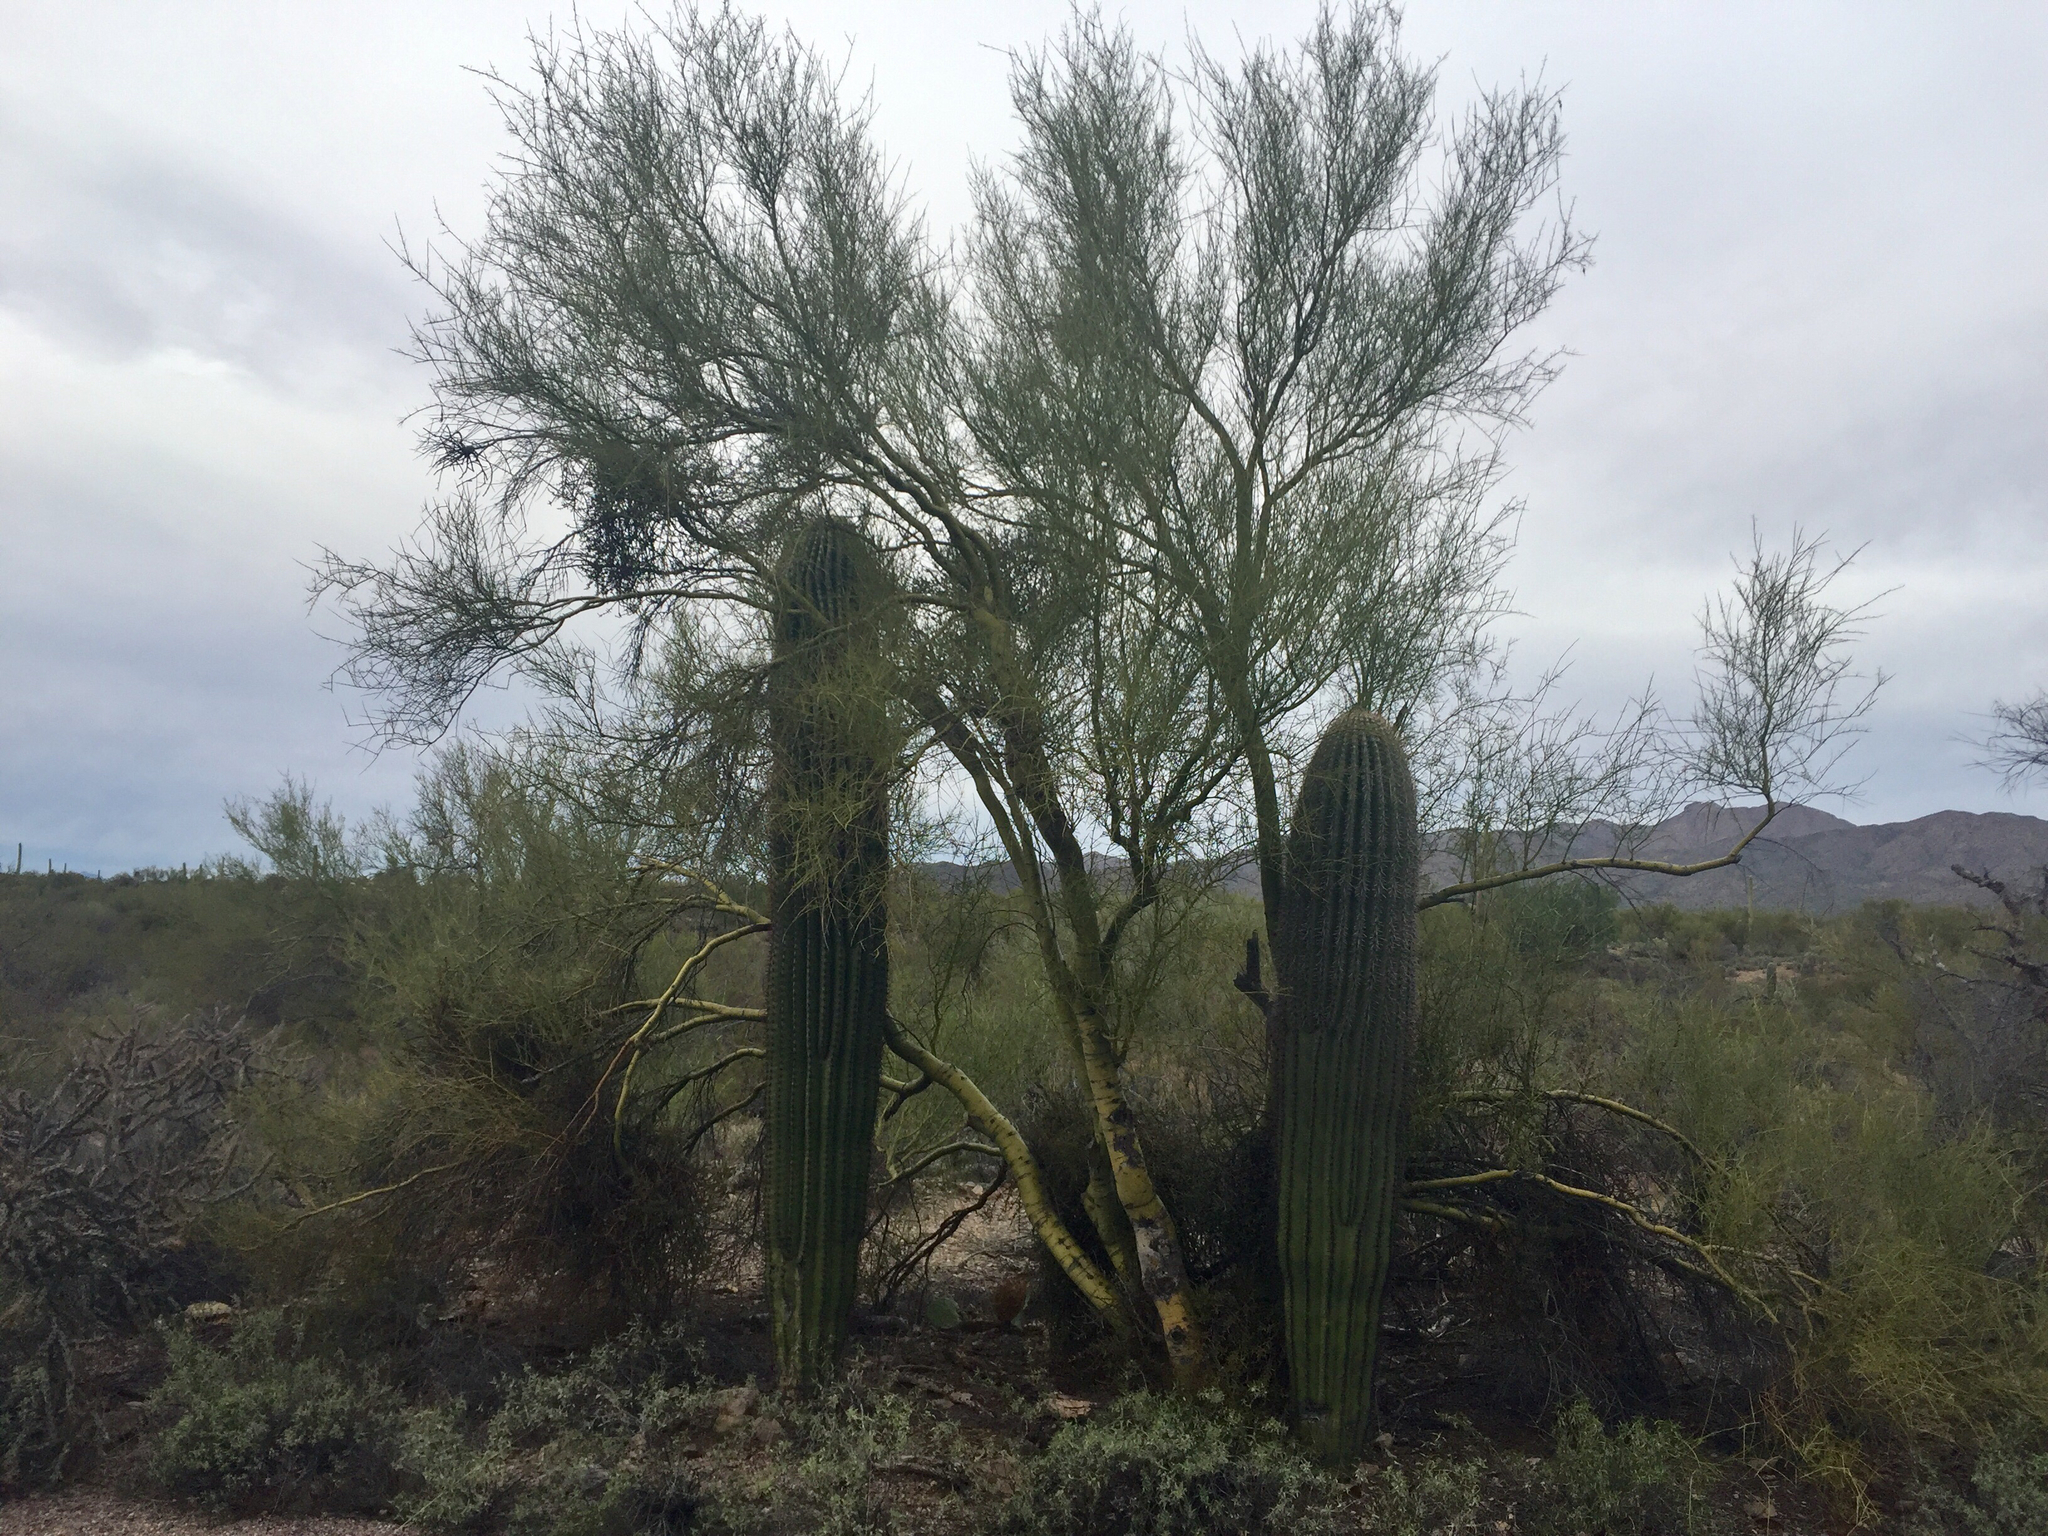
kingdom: Plantae
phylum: Tracheophyta
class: Magnoliopsida
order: Caryophyllales
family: Cactaceae
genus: Carnegiea
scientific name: Carnegiea gigantea
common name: Saguaro
